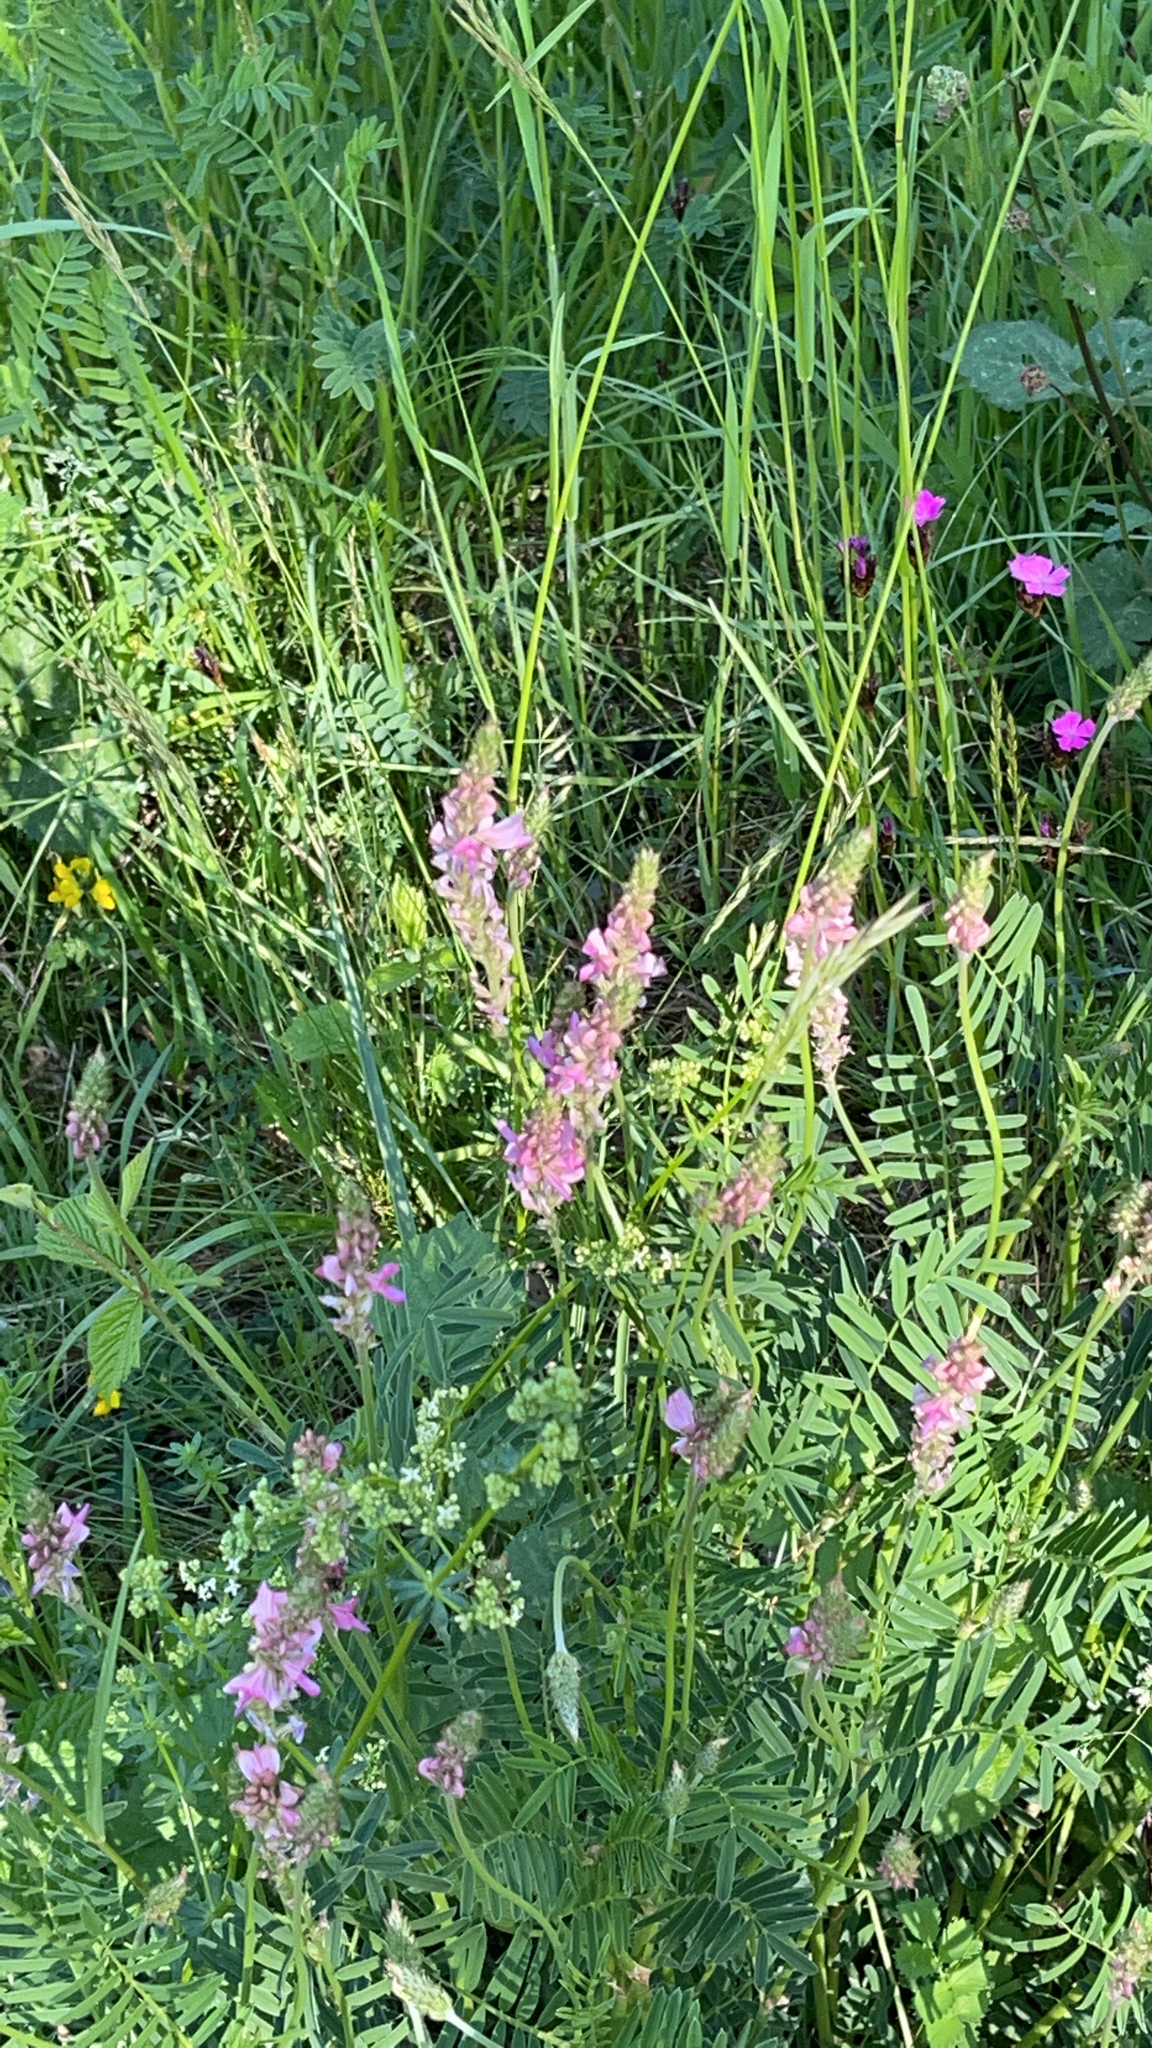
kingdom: Plantae
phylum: Tracheophyta
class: Magnoliopsida
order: Fabales
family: Fabaceae
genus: Onobrychis
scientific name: Onobrychis viciifolia
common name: Sainfoin
